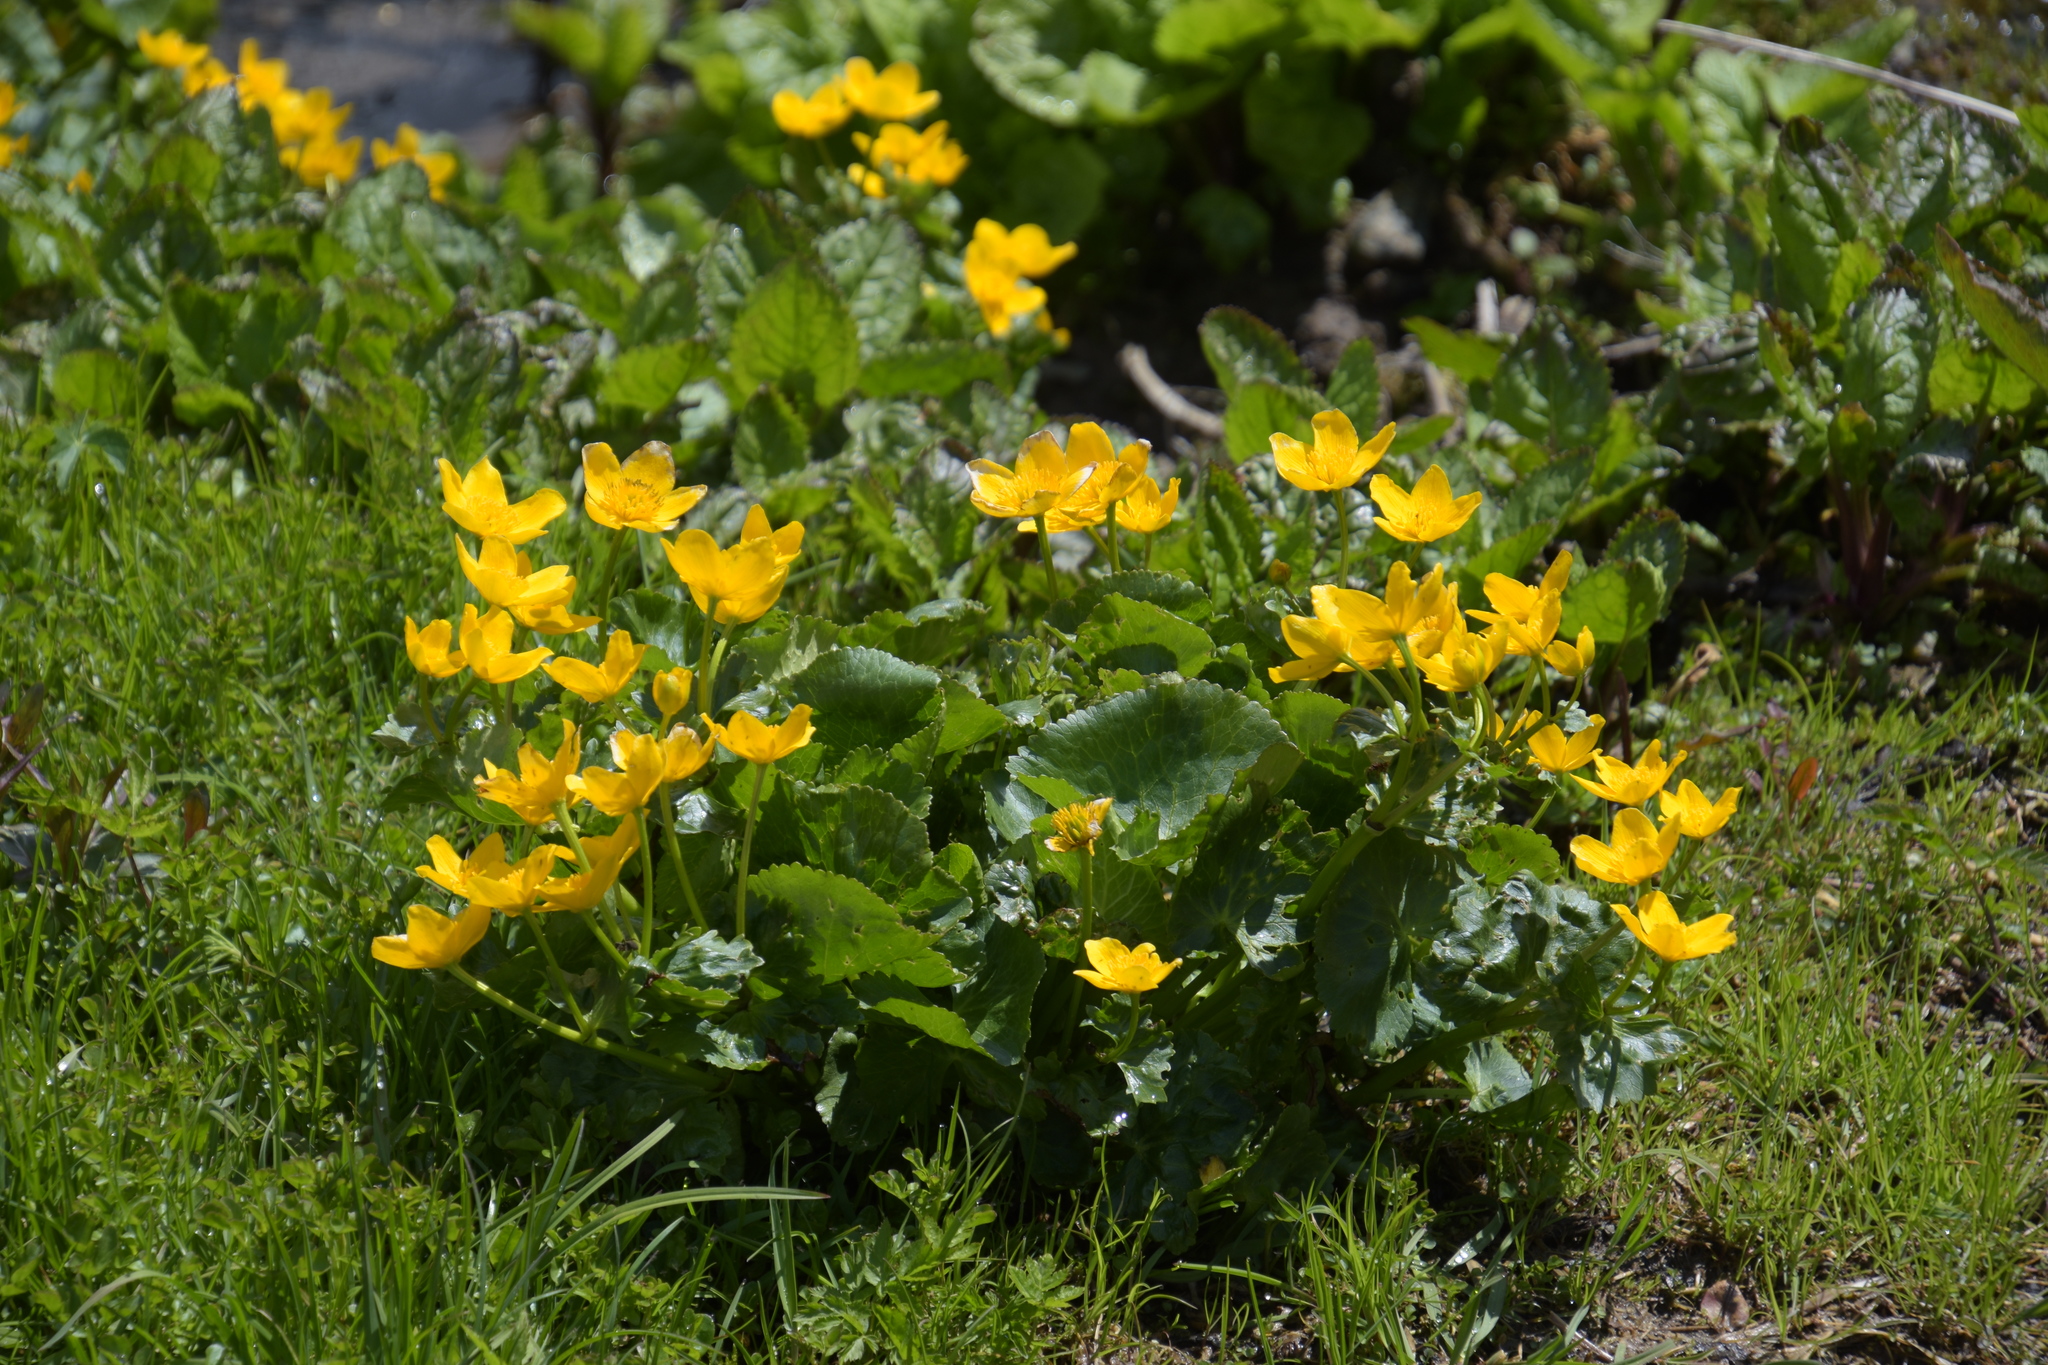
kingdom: Plantae
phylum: Tracheophyta
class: Magnoliopsida
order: Ranunculales
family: Ranunculaceae
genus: Caltha
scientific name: Caltha palustris
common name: Marsh marigold
